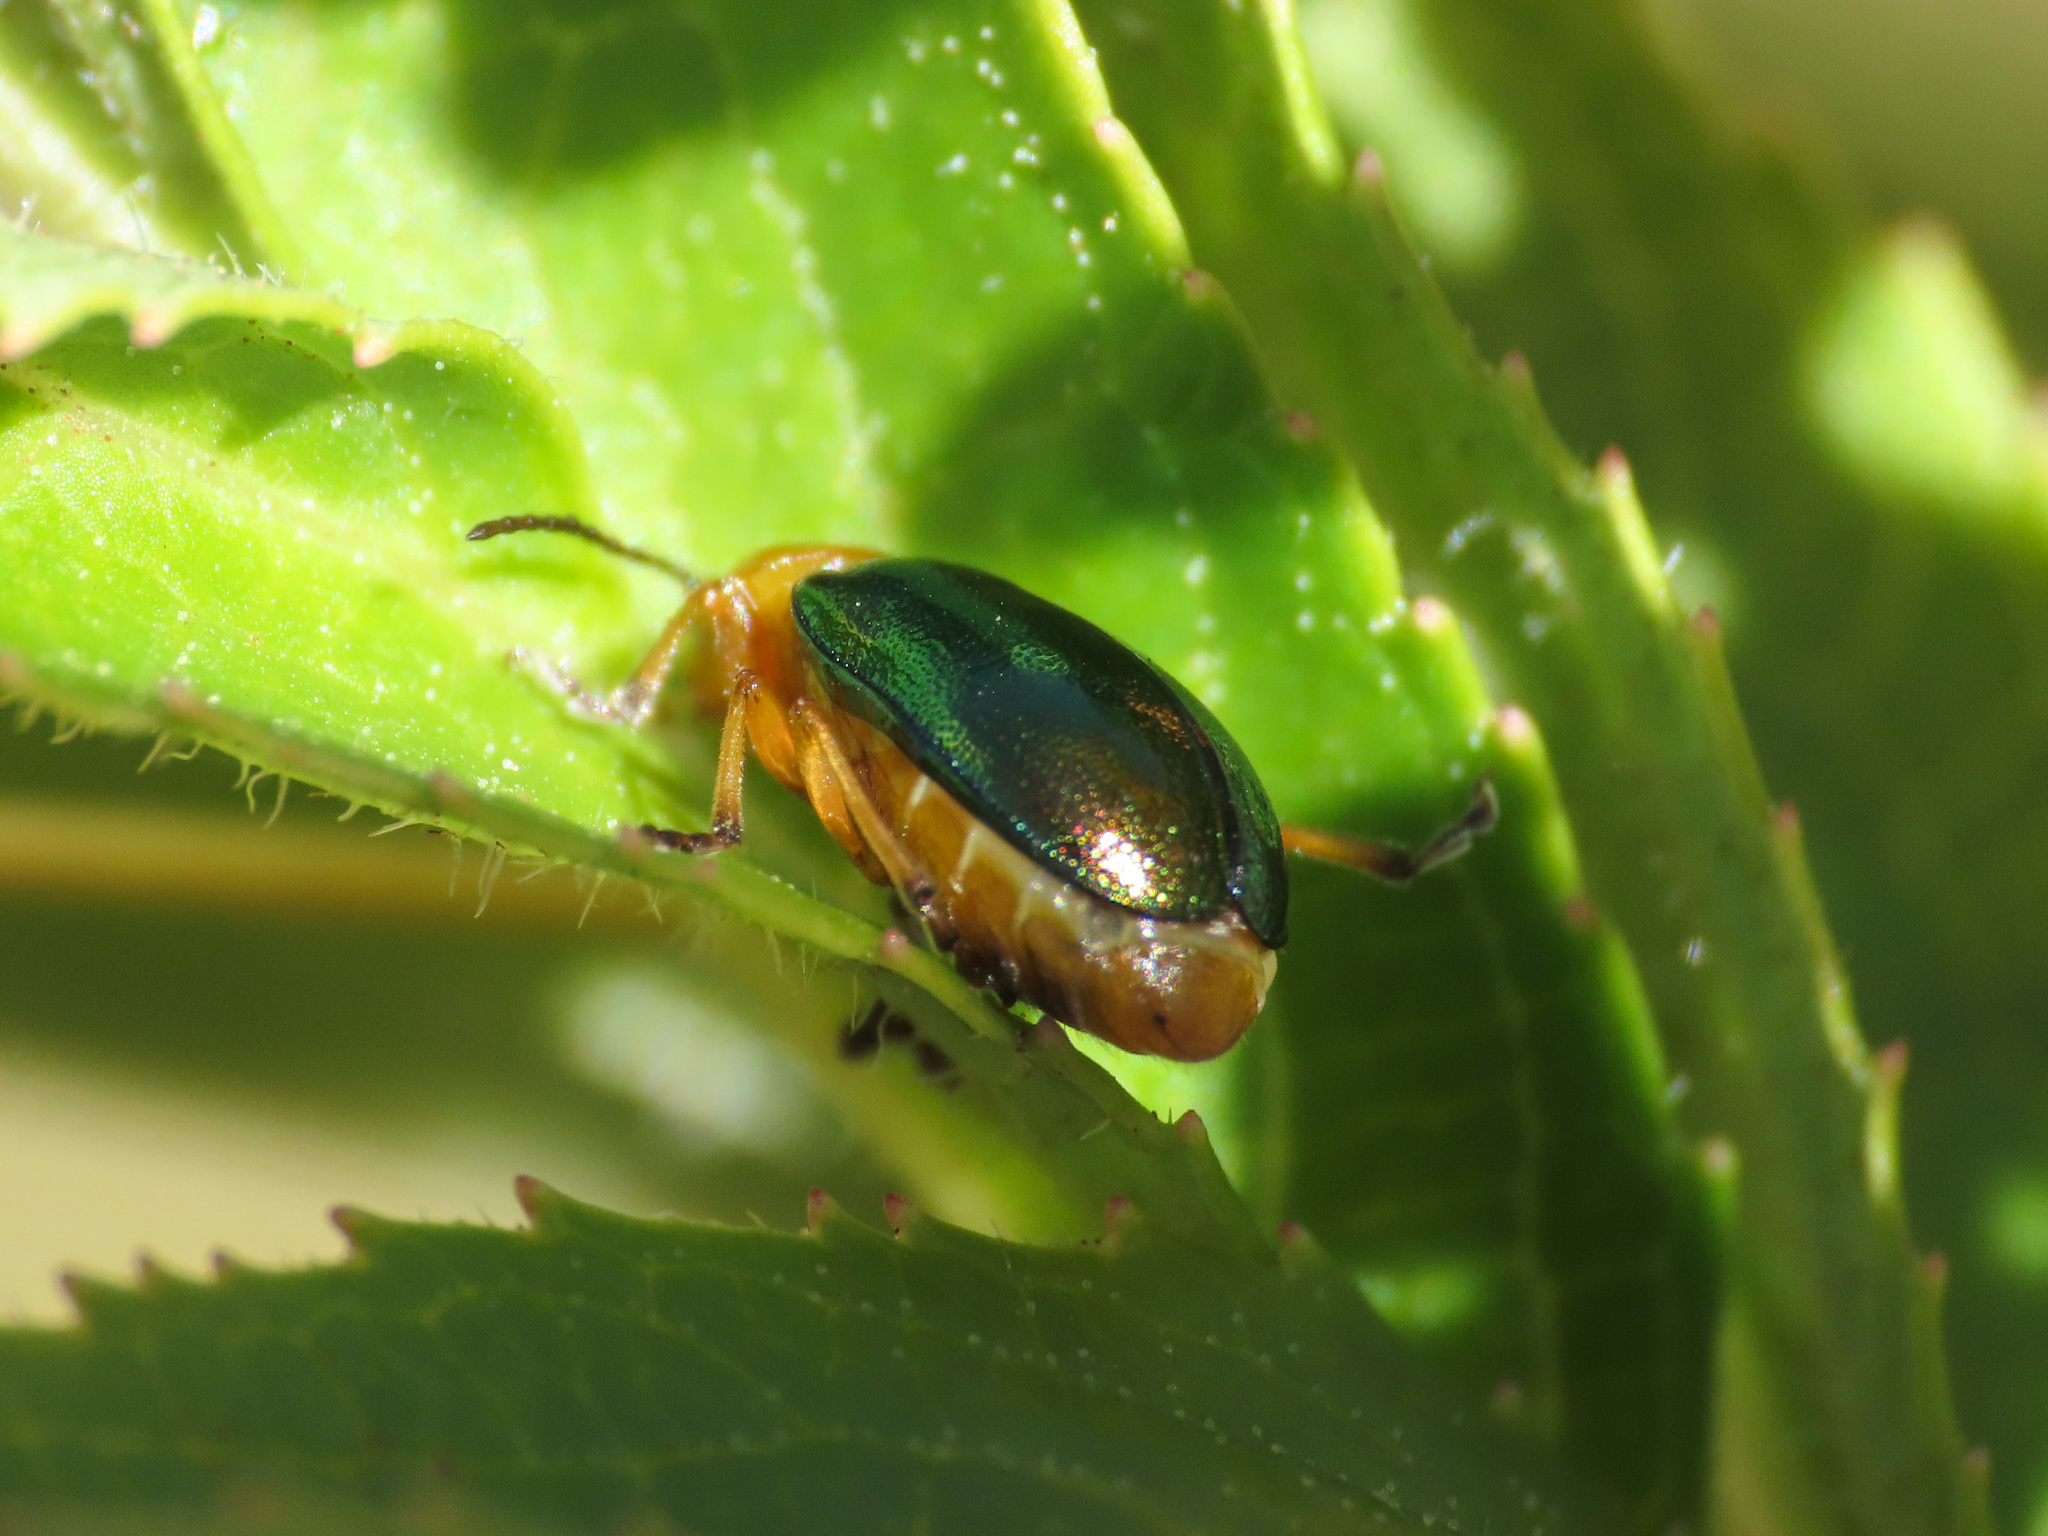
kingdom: Animalia
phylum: Arthropoda
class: Insecta
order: Coleoptera
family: Chrysomelidae
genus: Sermylassa
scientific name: Sermylassa halensis
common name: Leaf beetle
